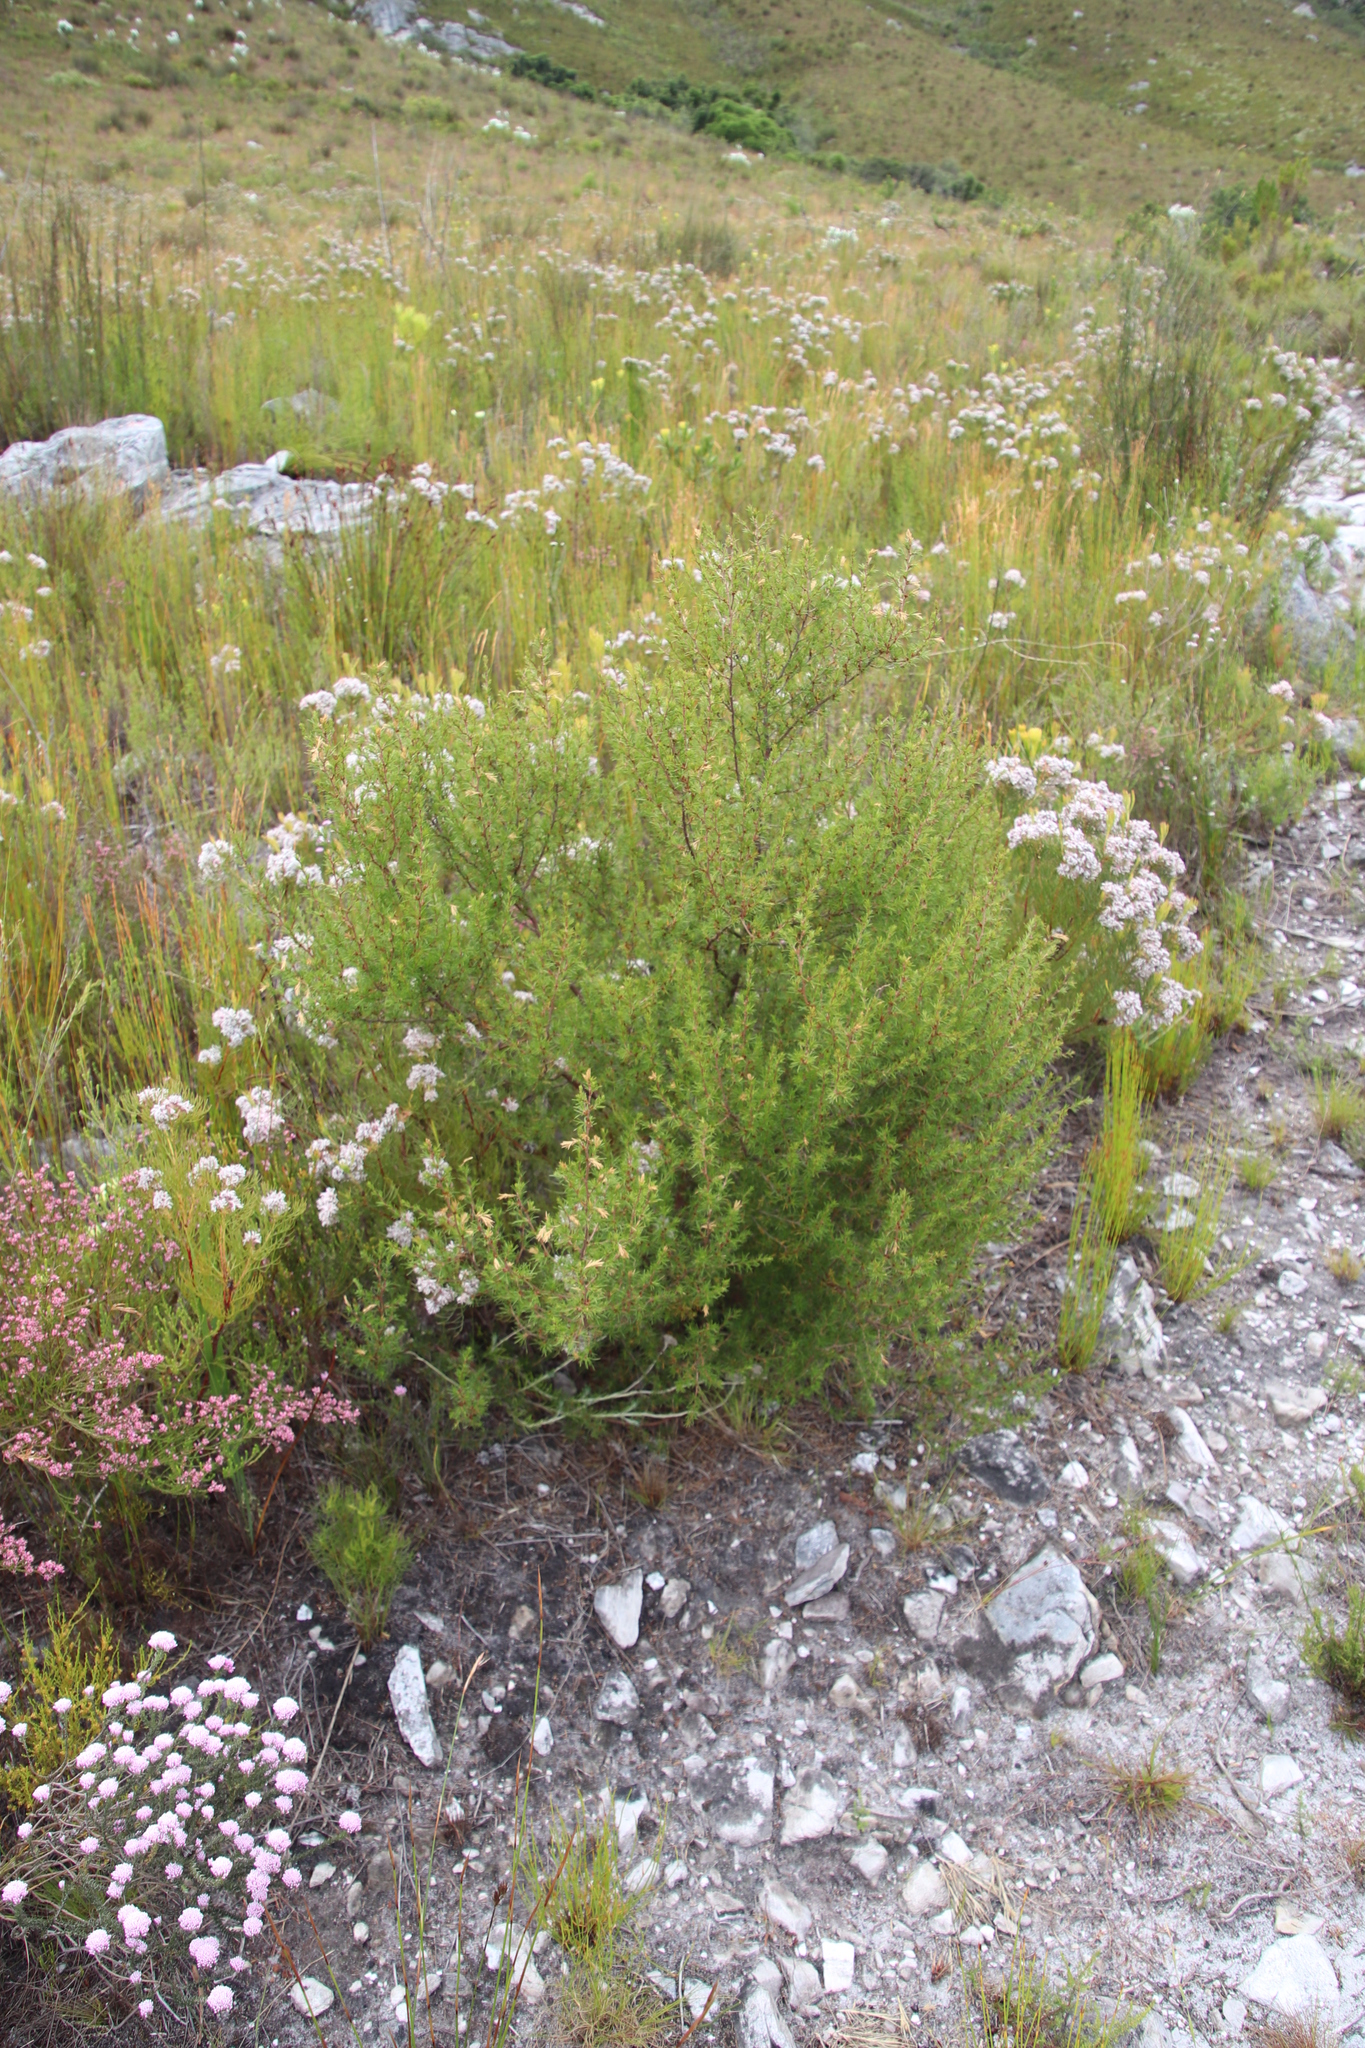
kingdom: Plantae
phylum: Tracheophyta
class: Magnoliopsida
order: Rosales
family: Rosaceae
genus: Cliffortia
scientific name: Cliffortia atrata
